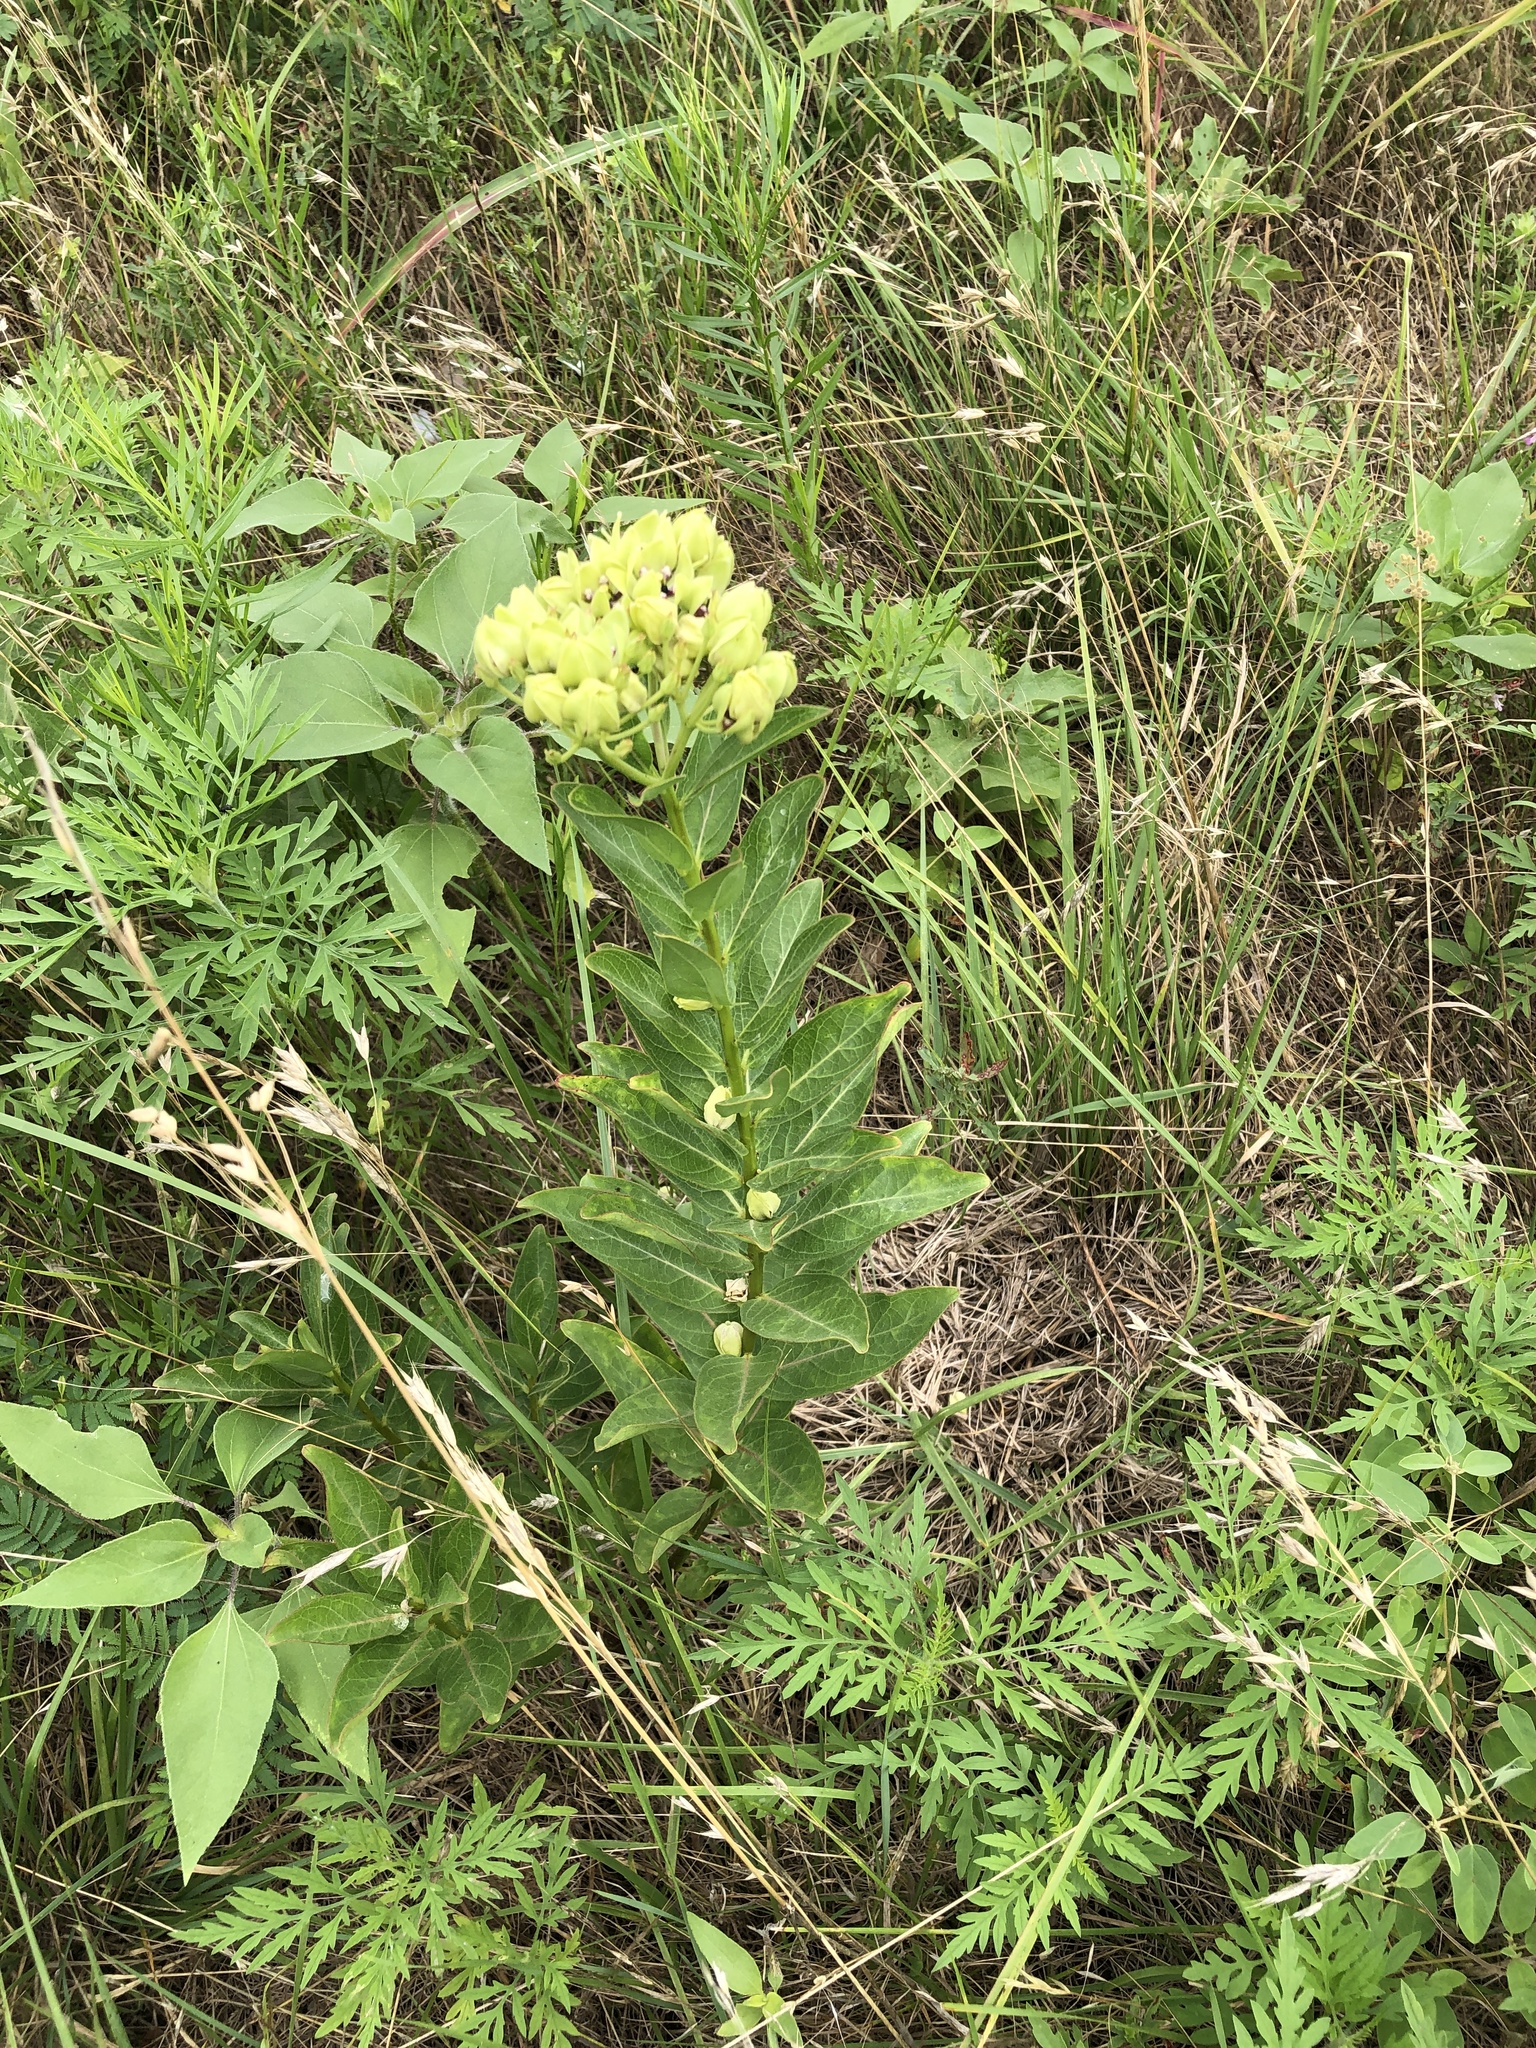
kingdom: Plantae
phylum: Tracheophyta
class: Magnoliopsida
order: Gentianales
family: Apocynaceae
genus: Asclepias
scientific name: Asclepias viridis
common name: Antelope-horns
